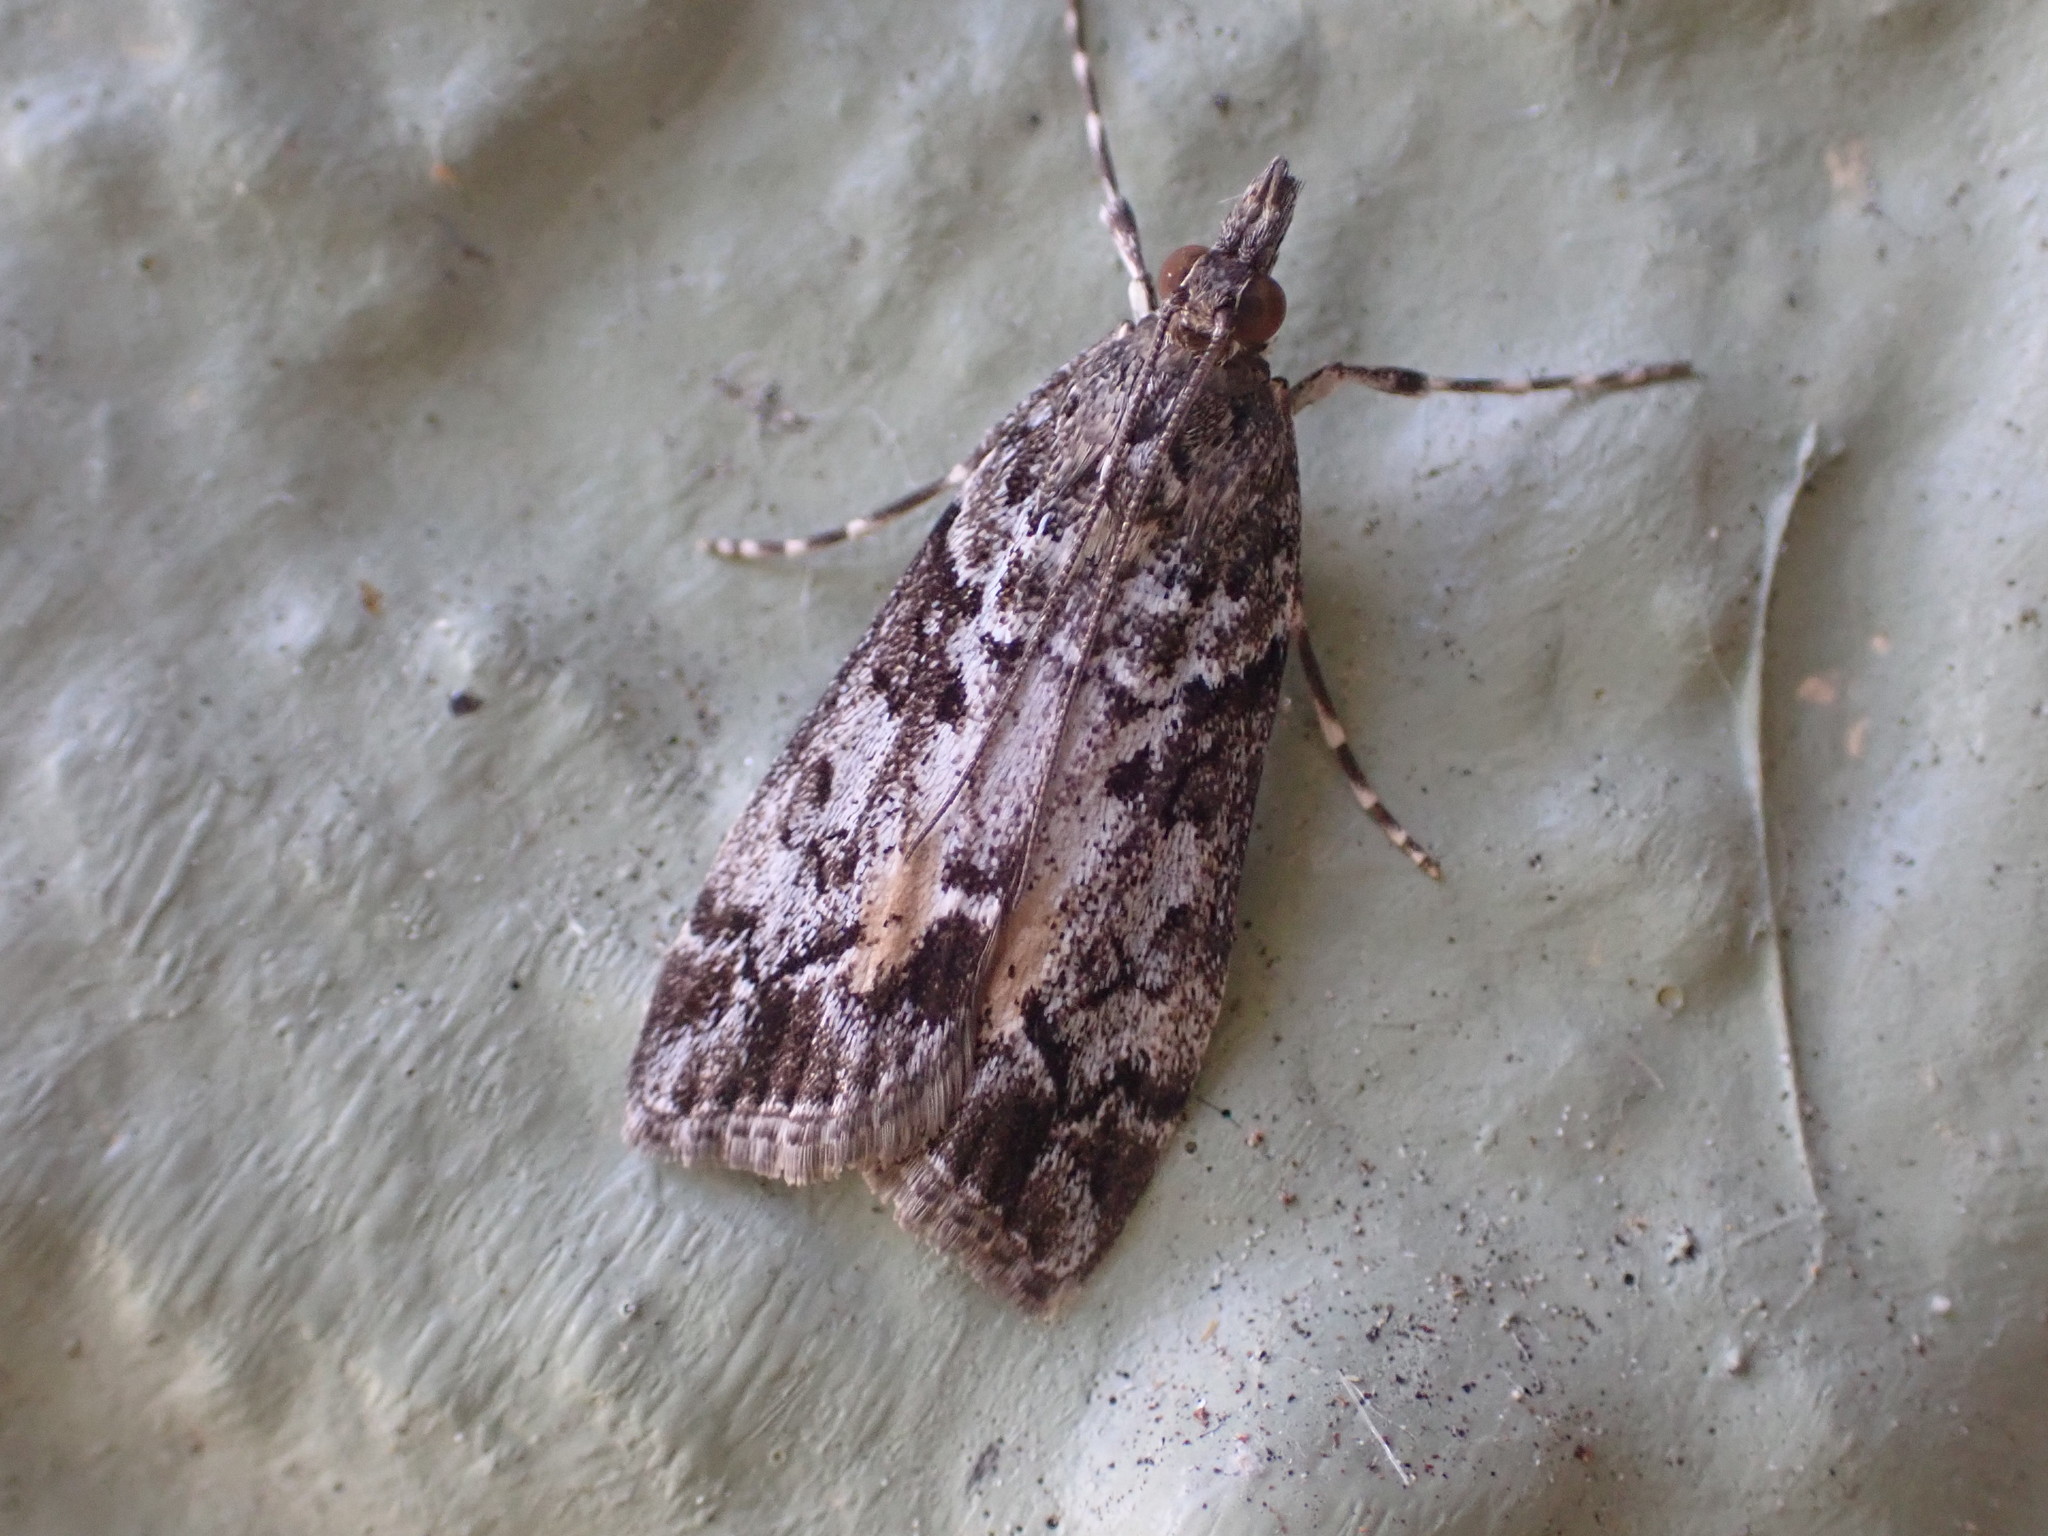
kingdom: Animalia
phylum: Arthropoda
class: Insecta
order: Lepidoptera
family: Crambidae
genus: Eudonia
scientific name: Eudonia submarginalis
